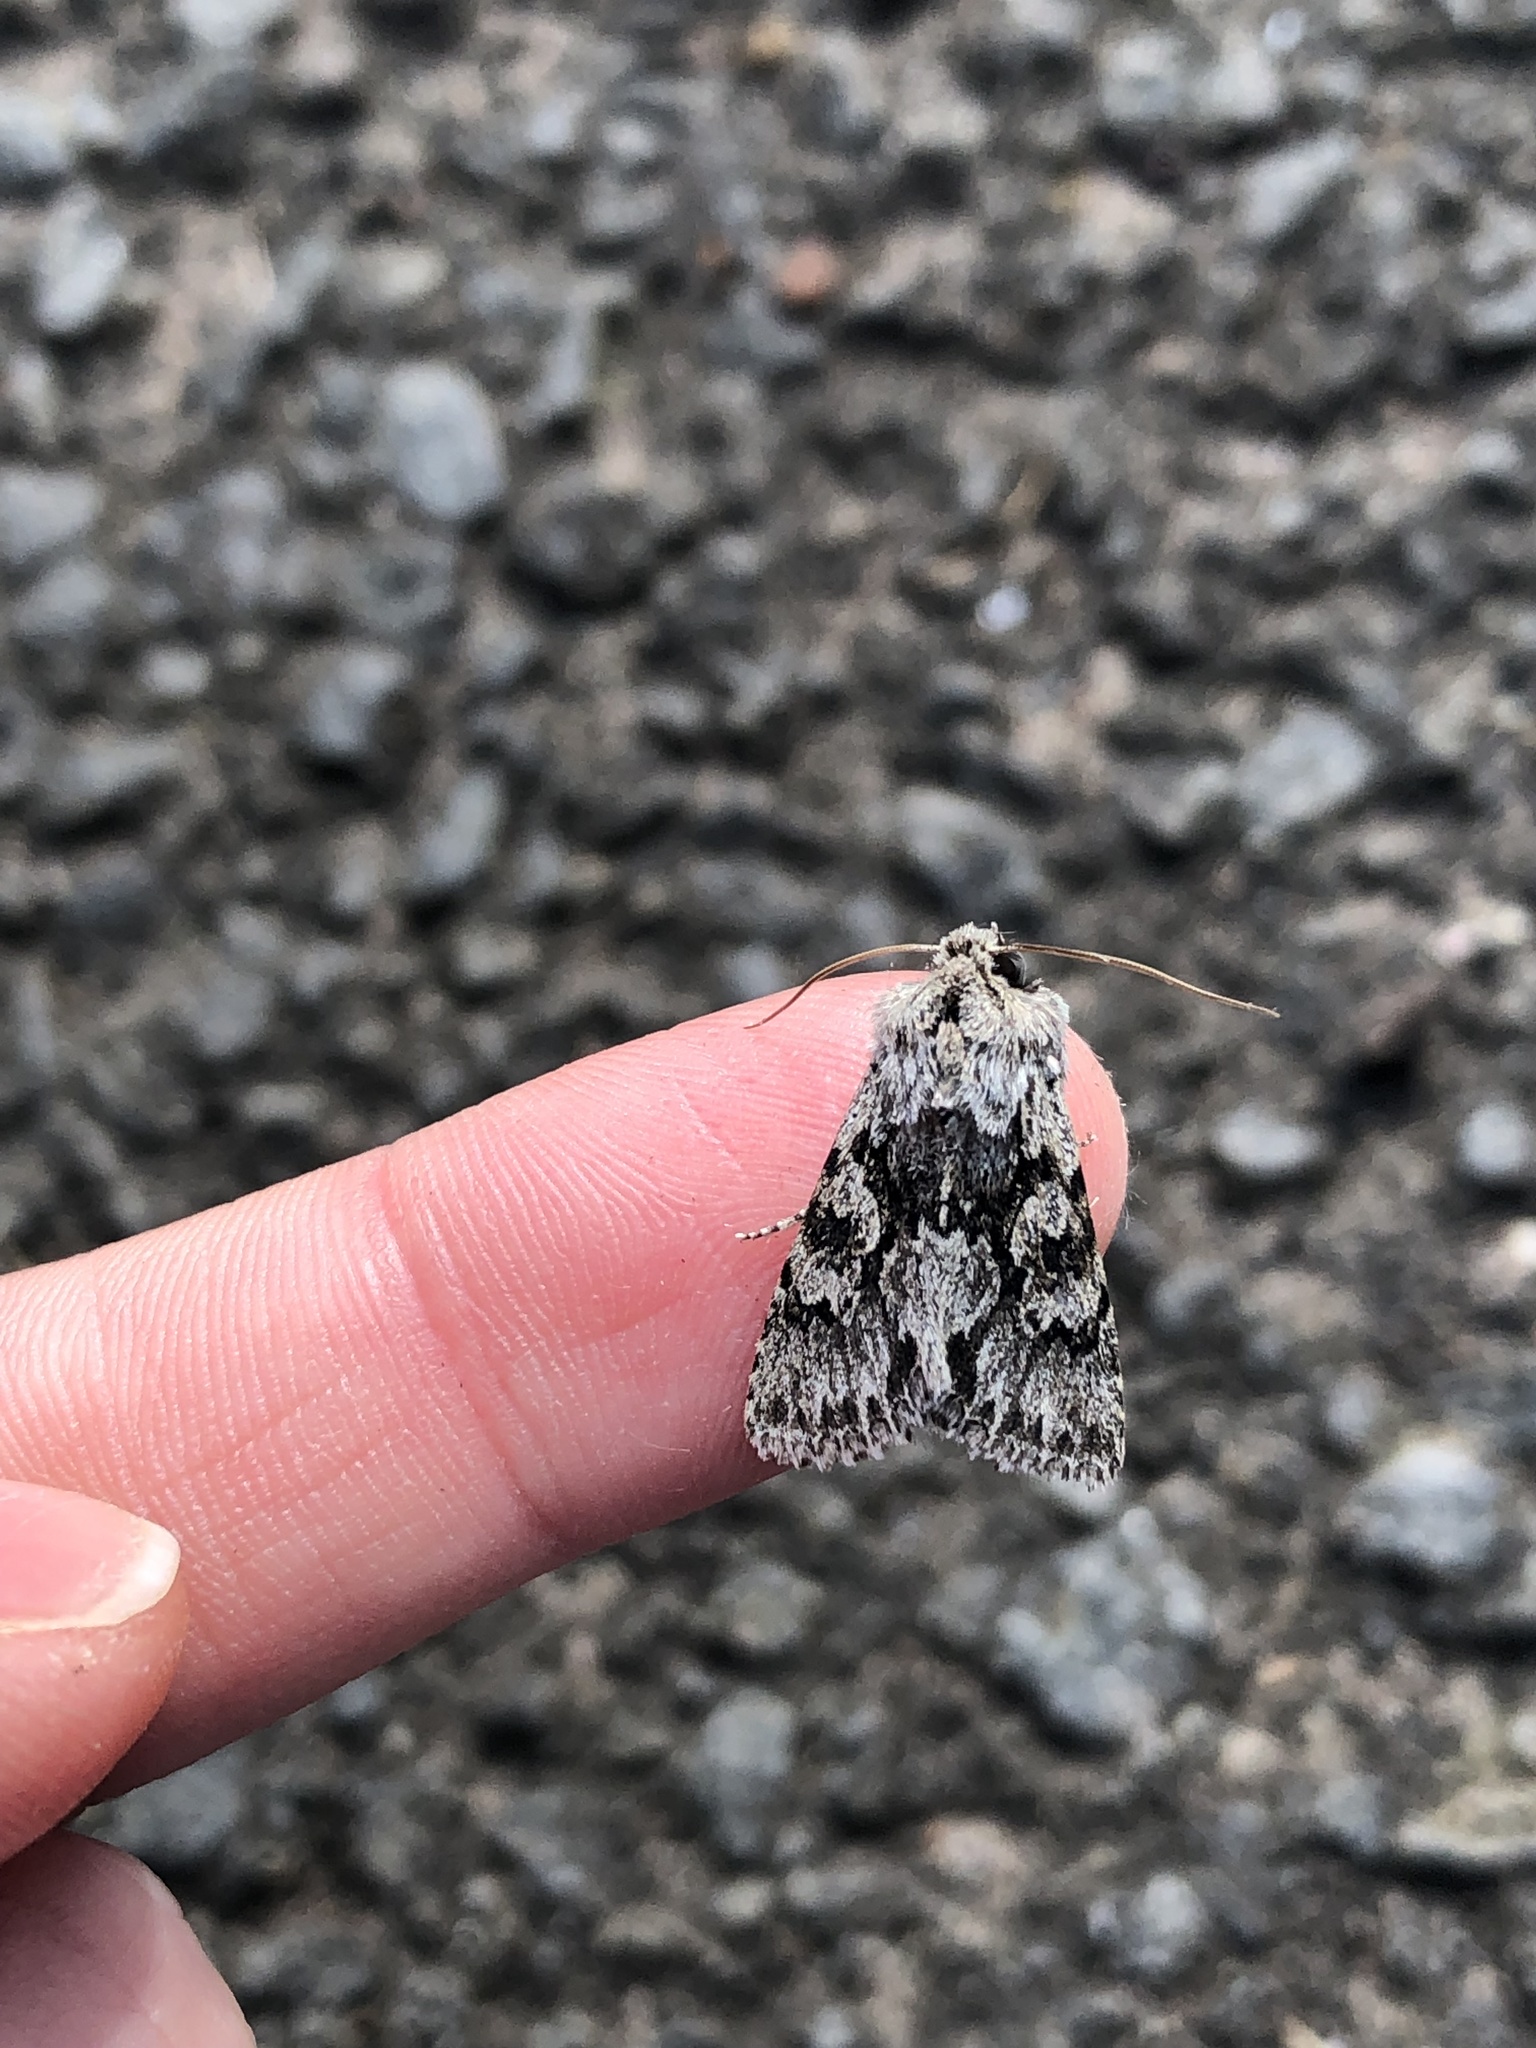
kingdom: Animalia
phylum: Arthropoda
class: Insecta
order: Lepidoptera
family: Noctuidae
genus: Xylocampa
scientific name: Xylocampa areola
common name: Early grey
